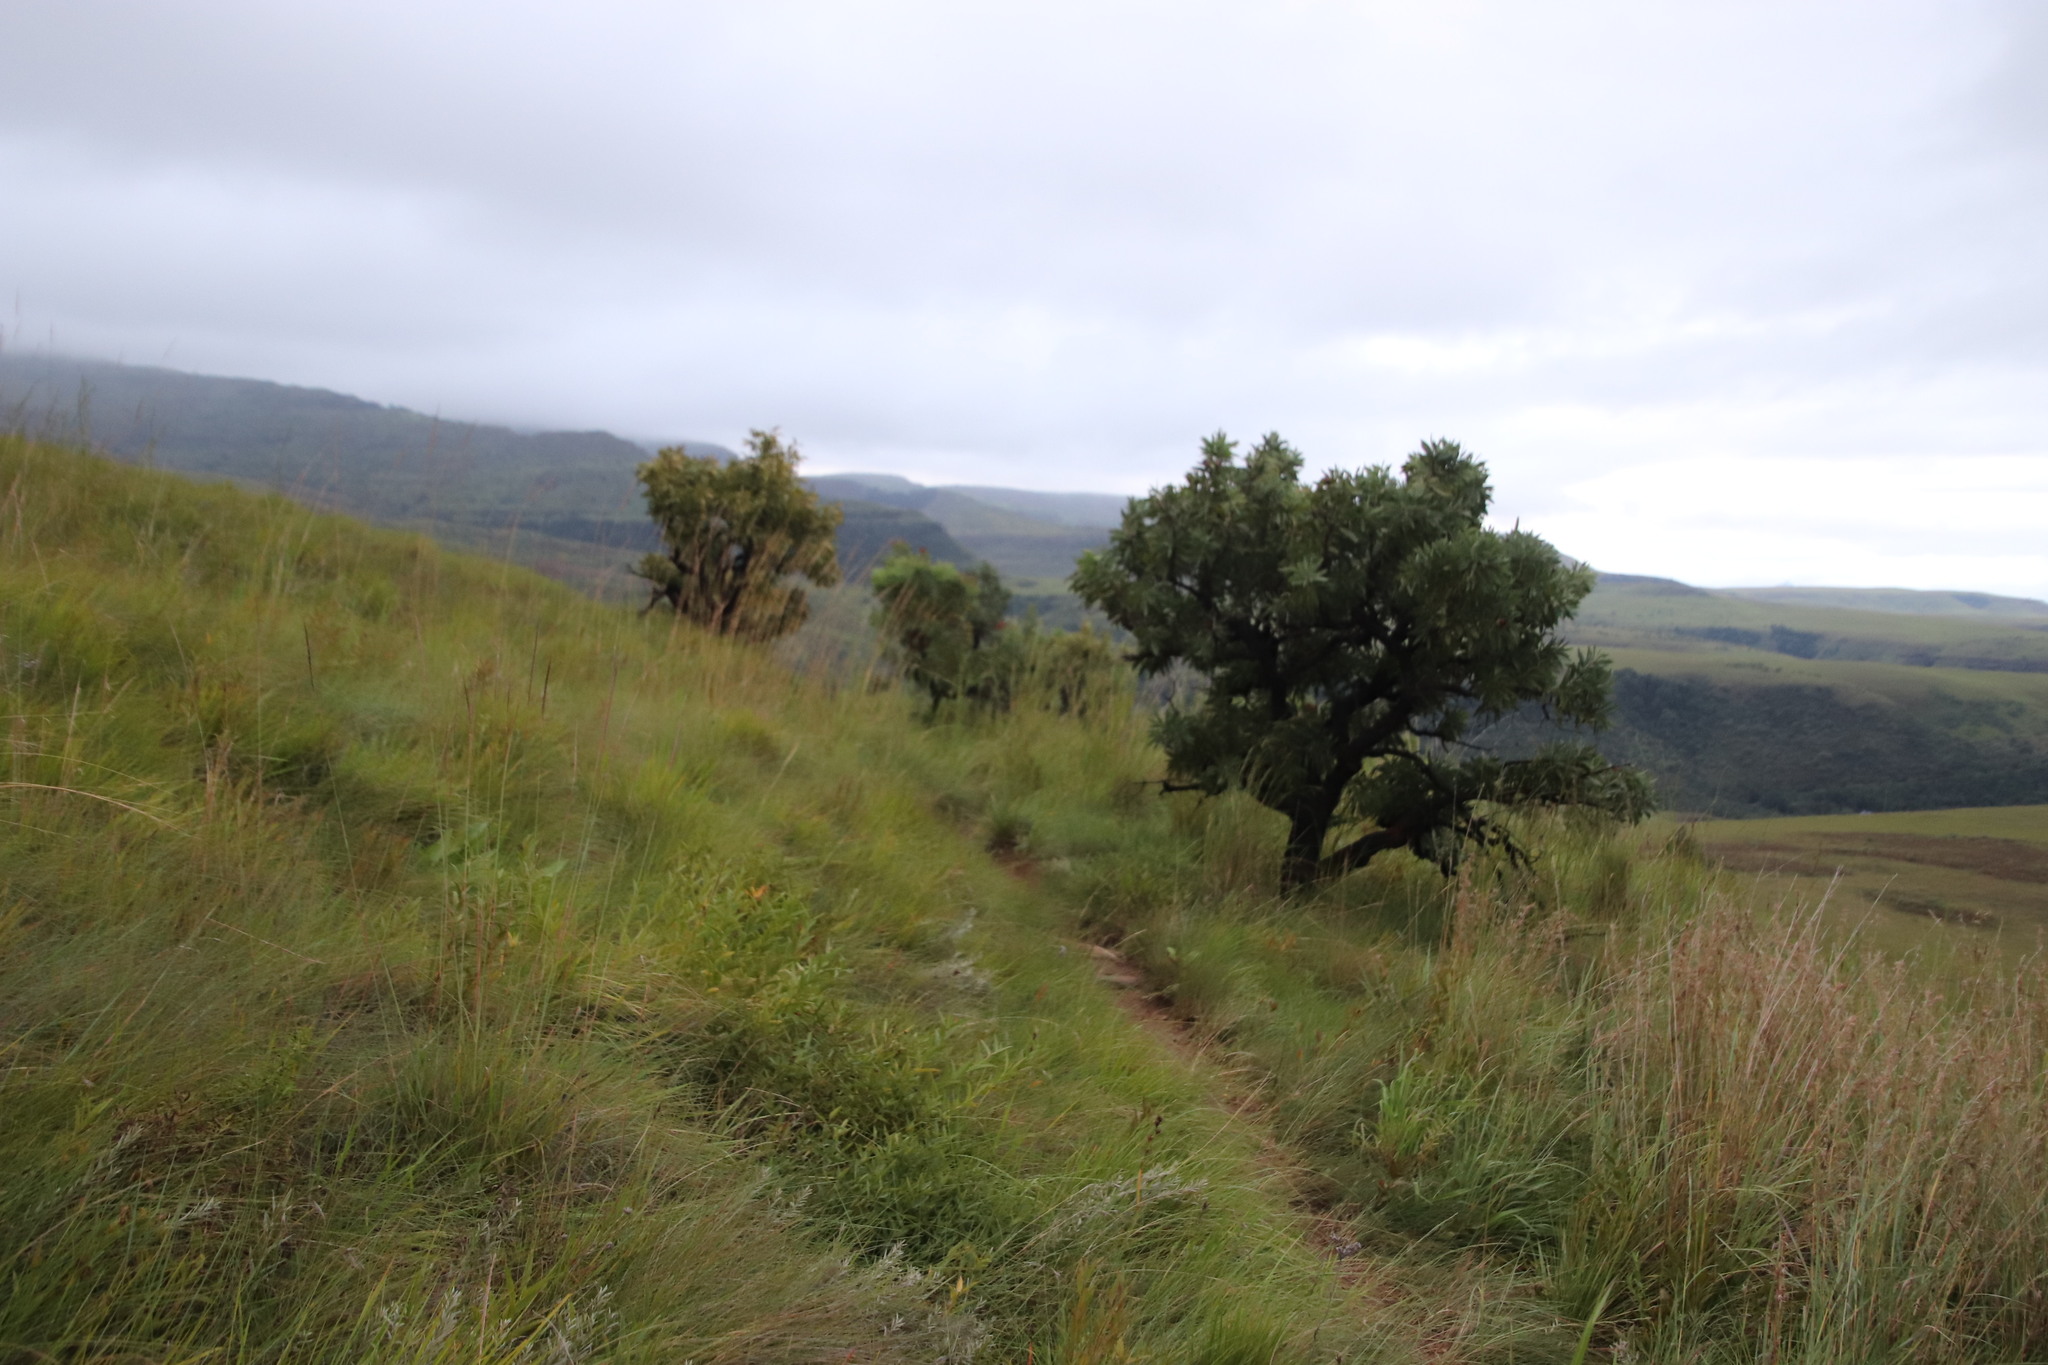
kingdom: Plantae
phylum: Tracheophyta
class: Magnoliopsida
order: Proteales
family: Proteaceae
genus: Protea
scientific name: Protea roupelliae
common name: Silver sugarbush
